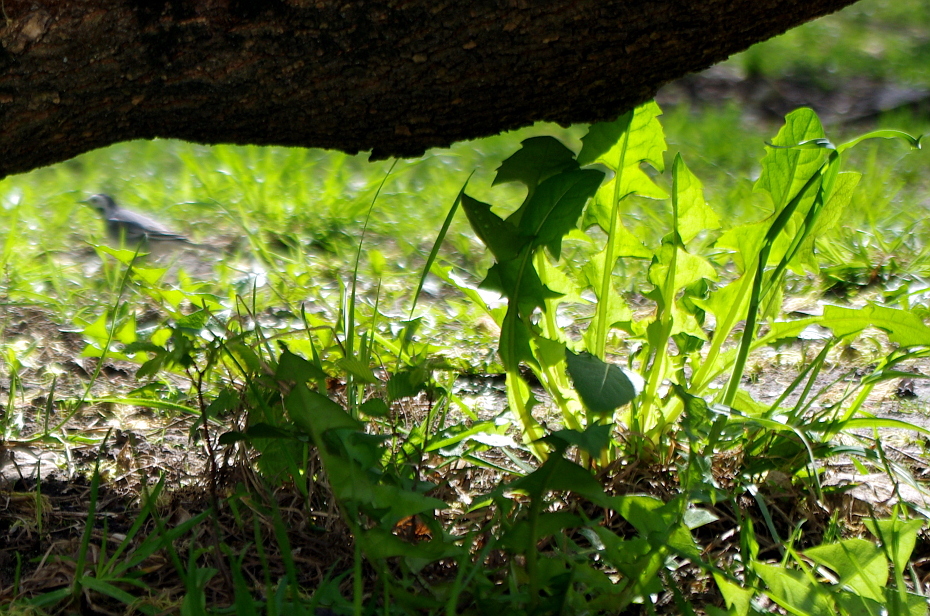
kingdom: Plantae
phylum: Tracheophyta
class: Magnoliopsida
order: Asterales
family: Asteraceae
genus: Taraxacum
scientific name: Taraxacum officinale
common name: Common dandelion
